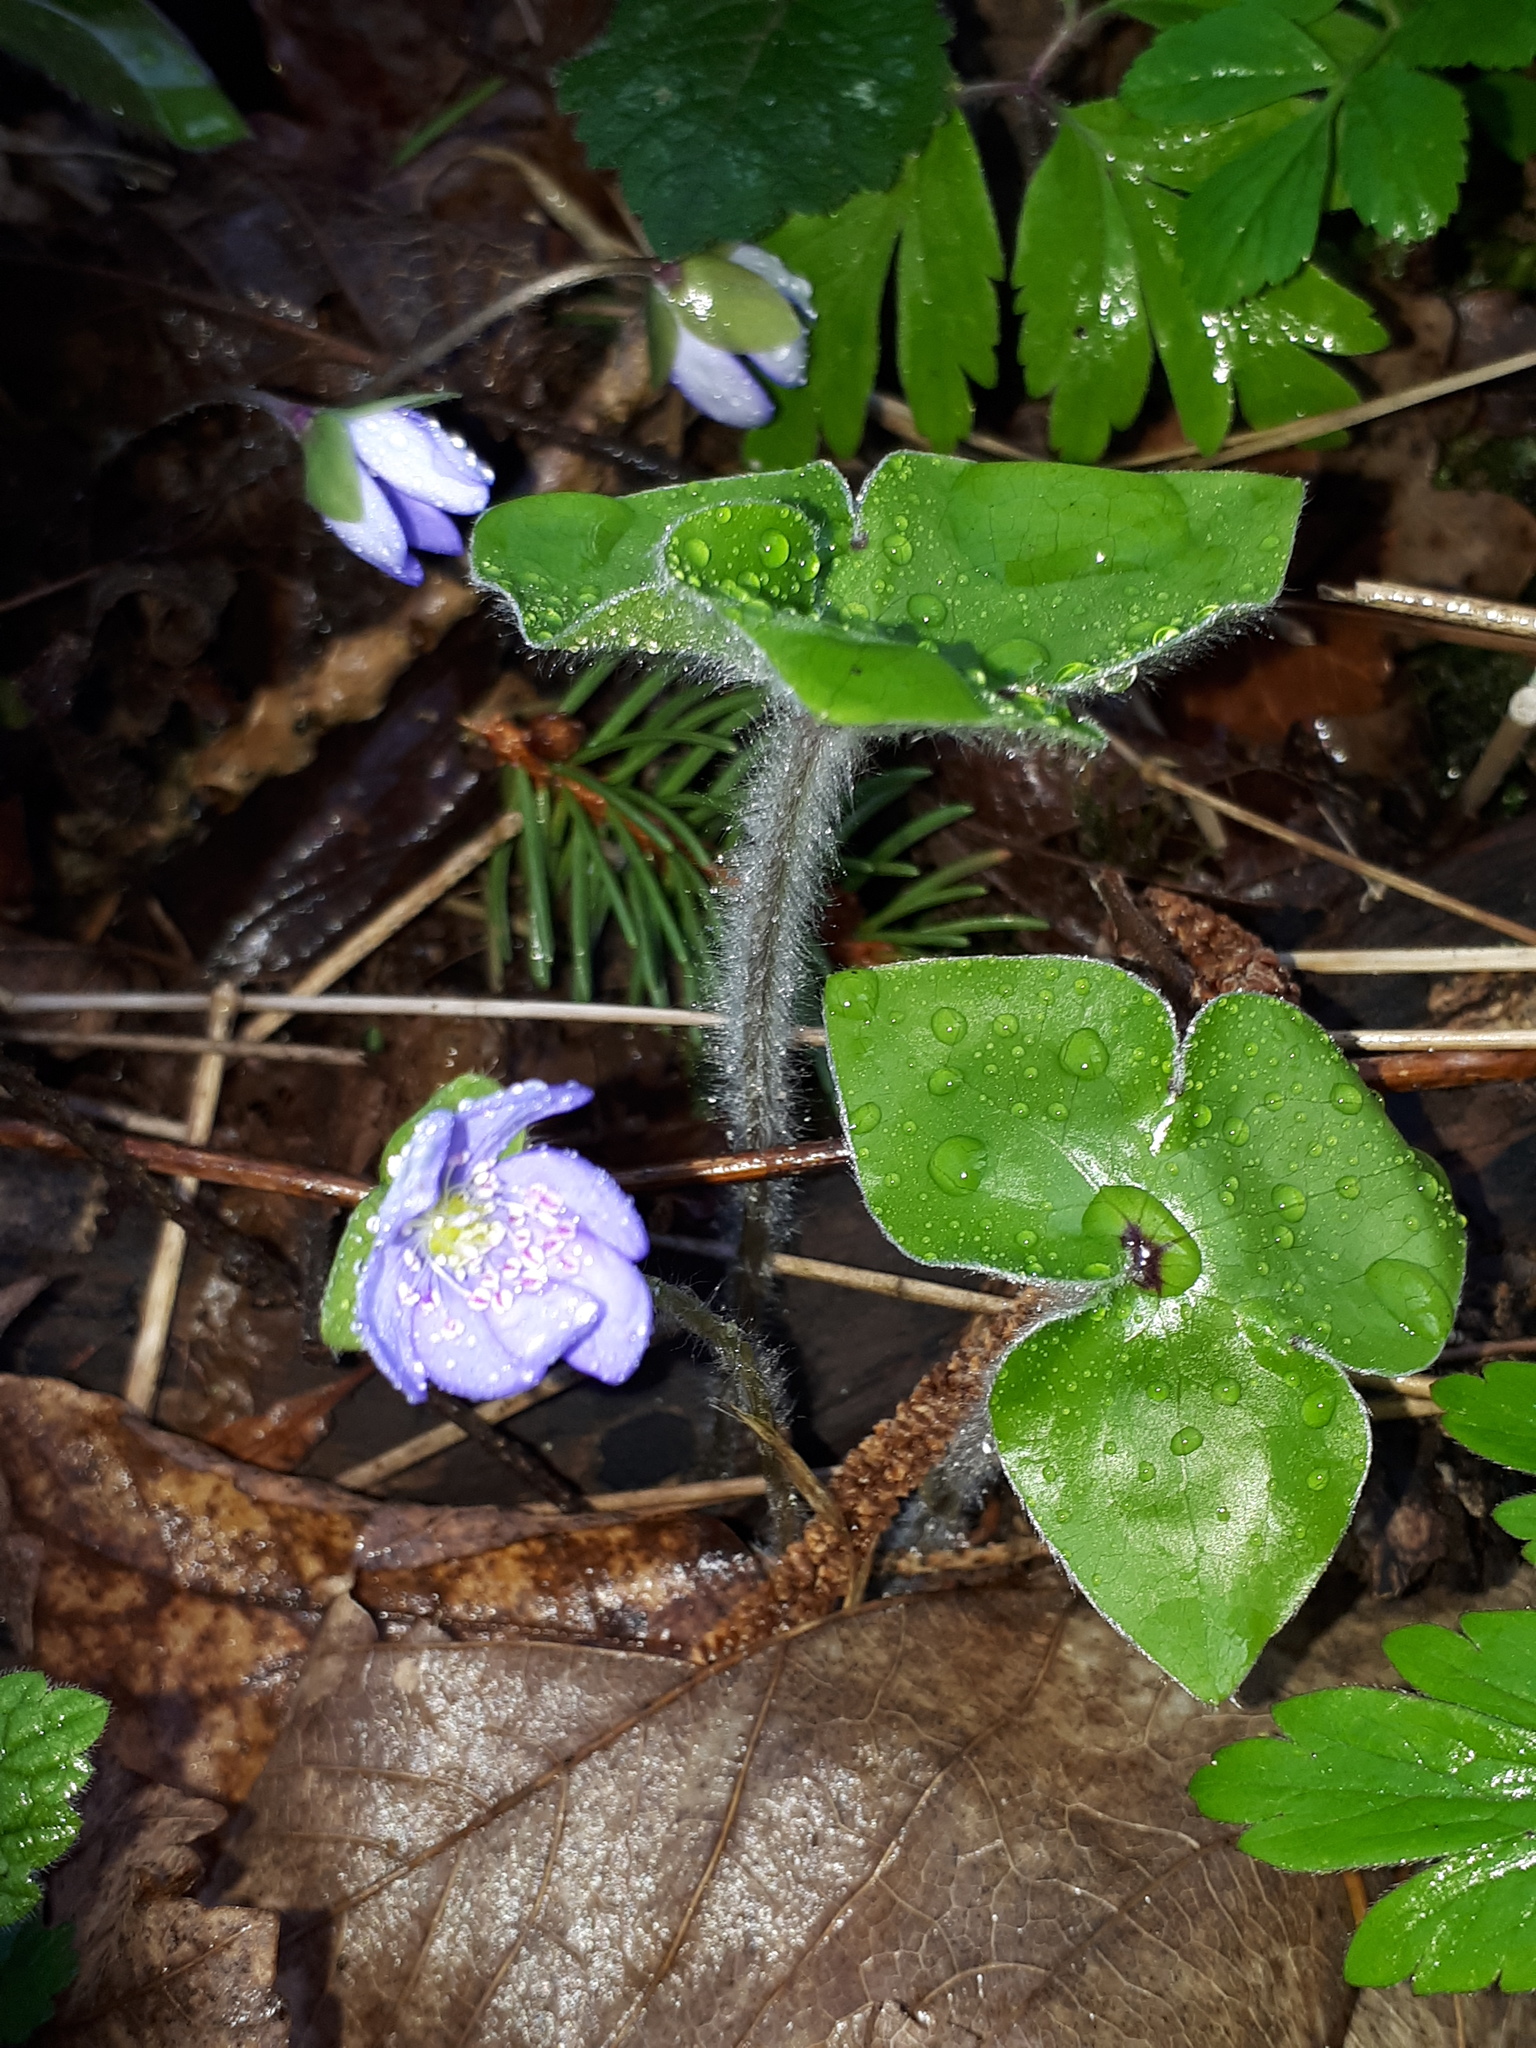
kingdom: Plantae
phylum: Tracheophyta
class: Magnoliopsida
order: Ranunculales
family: Ranunculaceae
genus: Hepatica
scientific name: Hepatica nobilis
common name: Liverleaf
